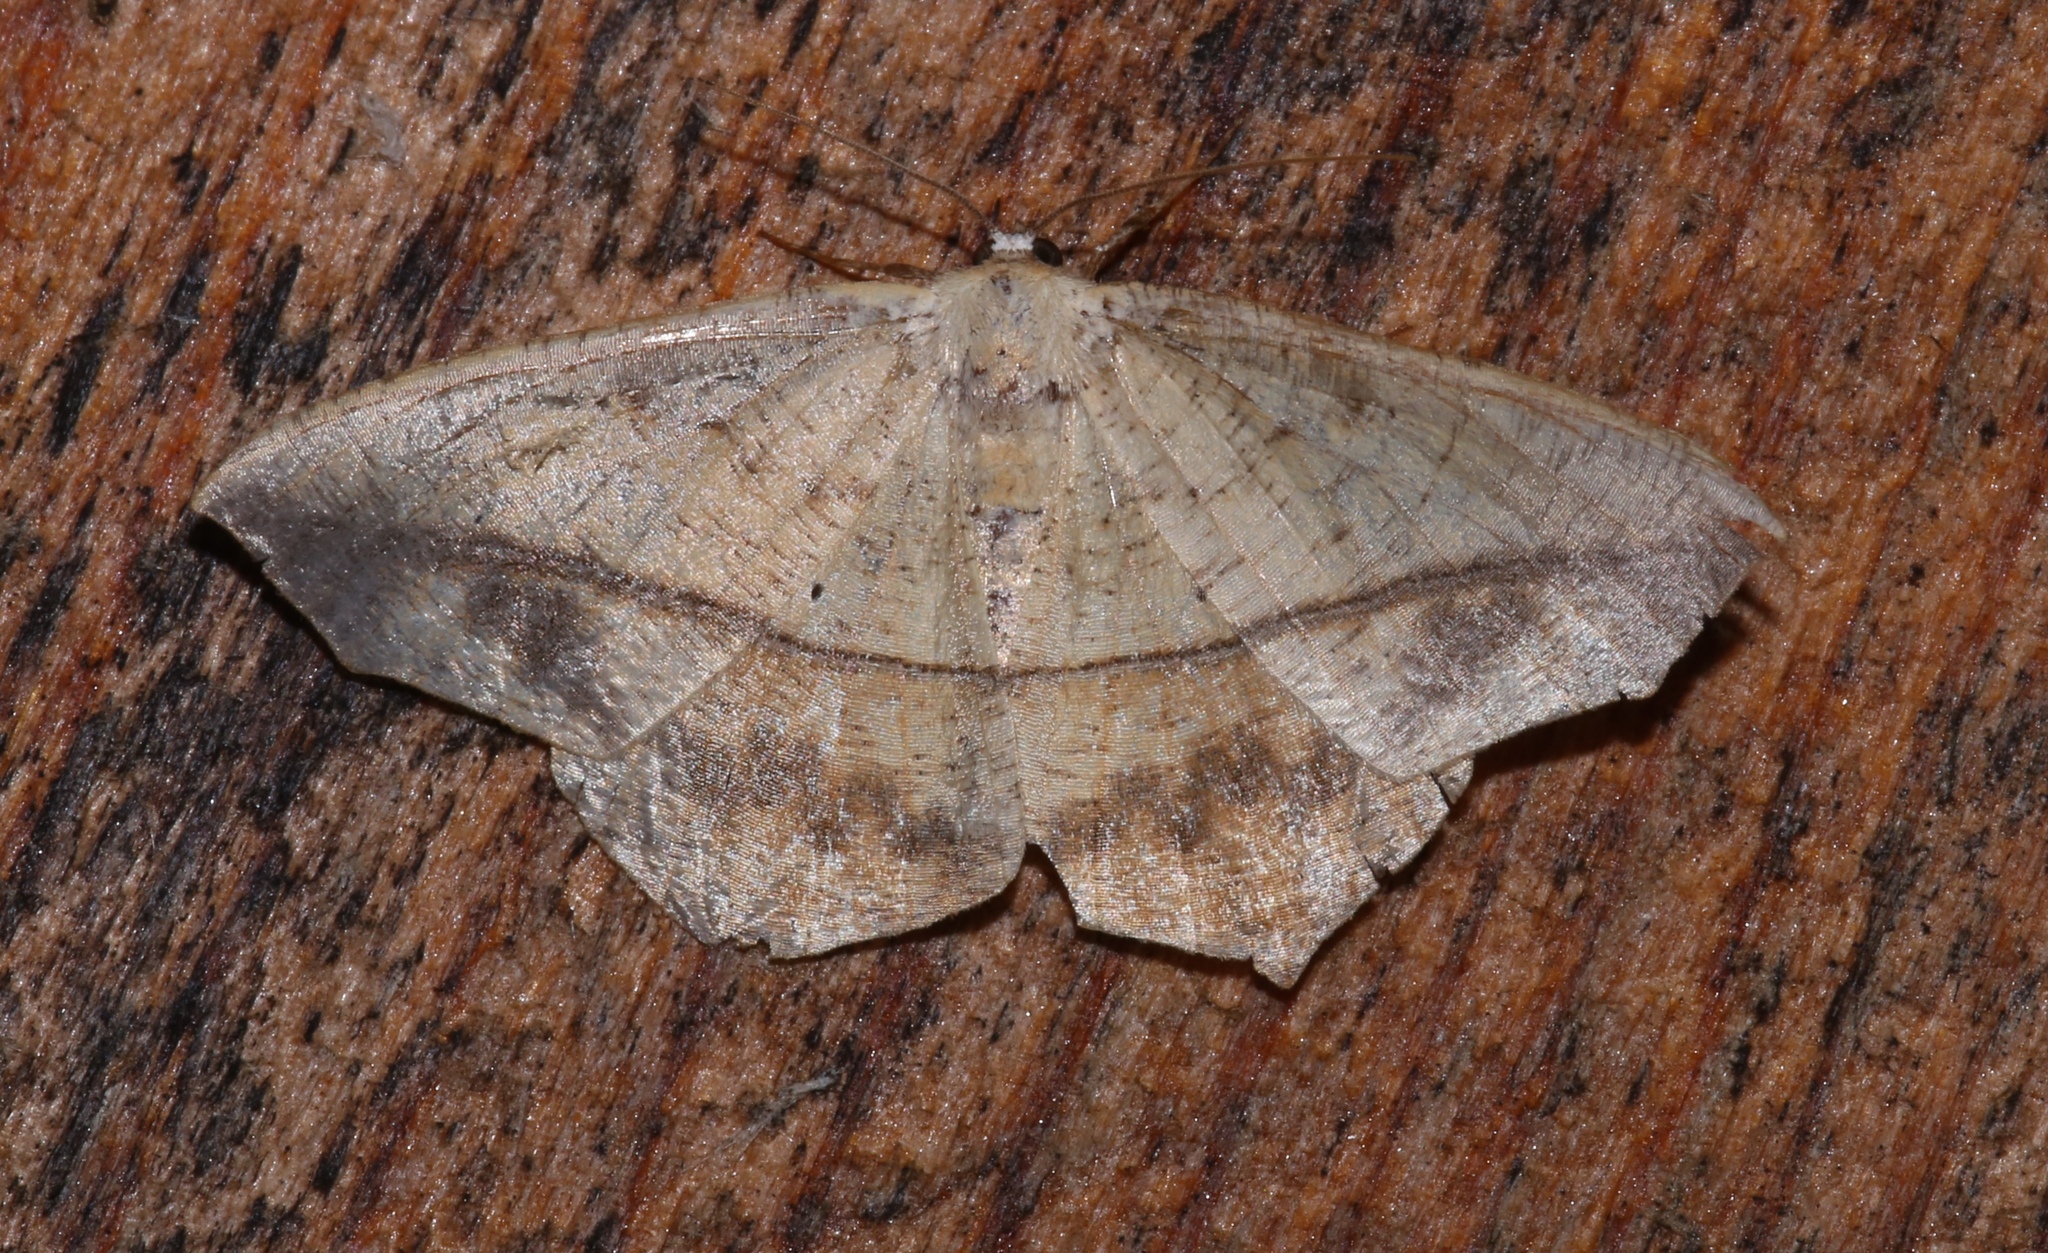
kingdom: Animalia
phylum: Arthropoda
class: Insecta
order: Lepidoptera
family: Geometridae
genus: Prochoerodes
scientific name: Prochoerodes lineola
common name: Large maple spanworm
